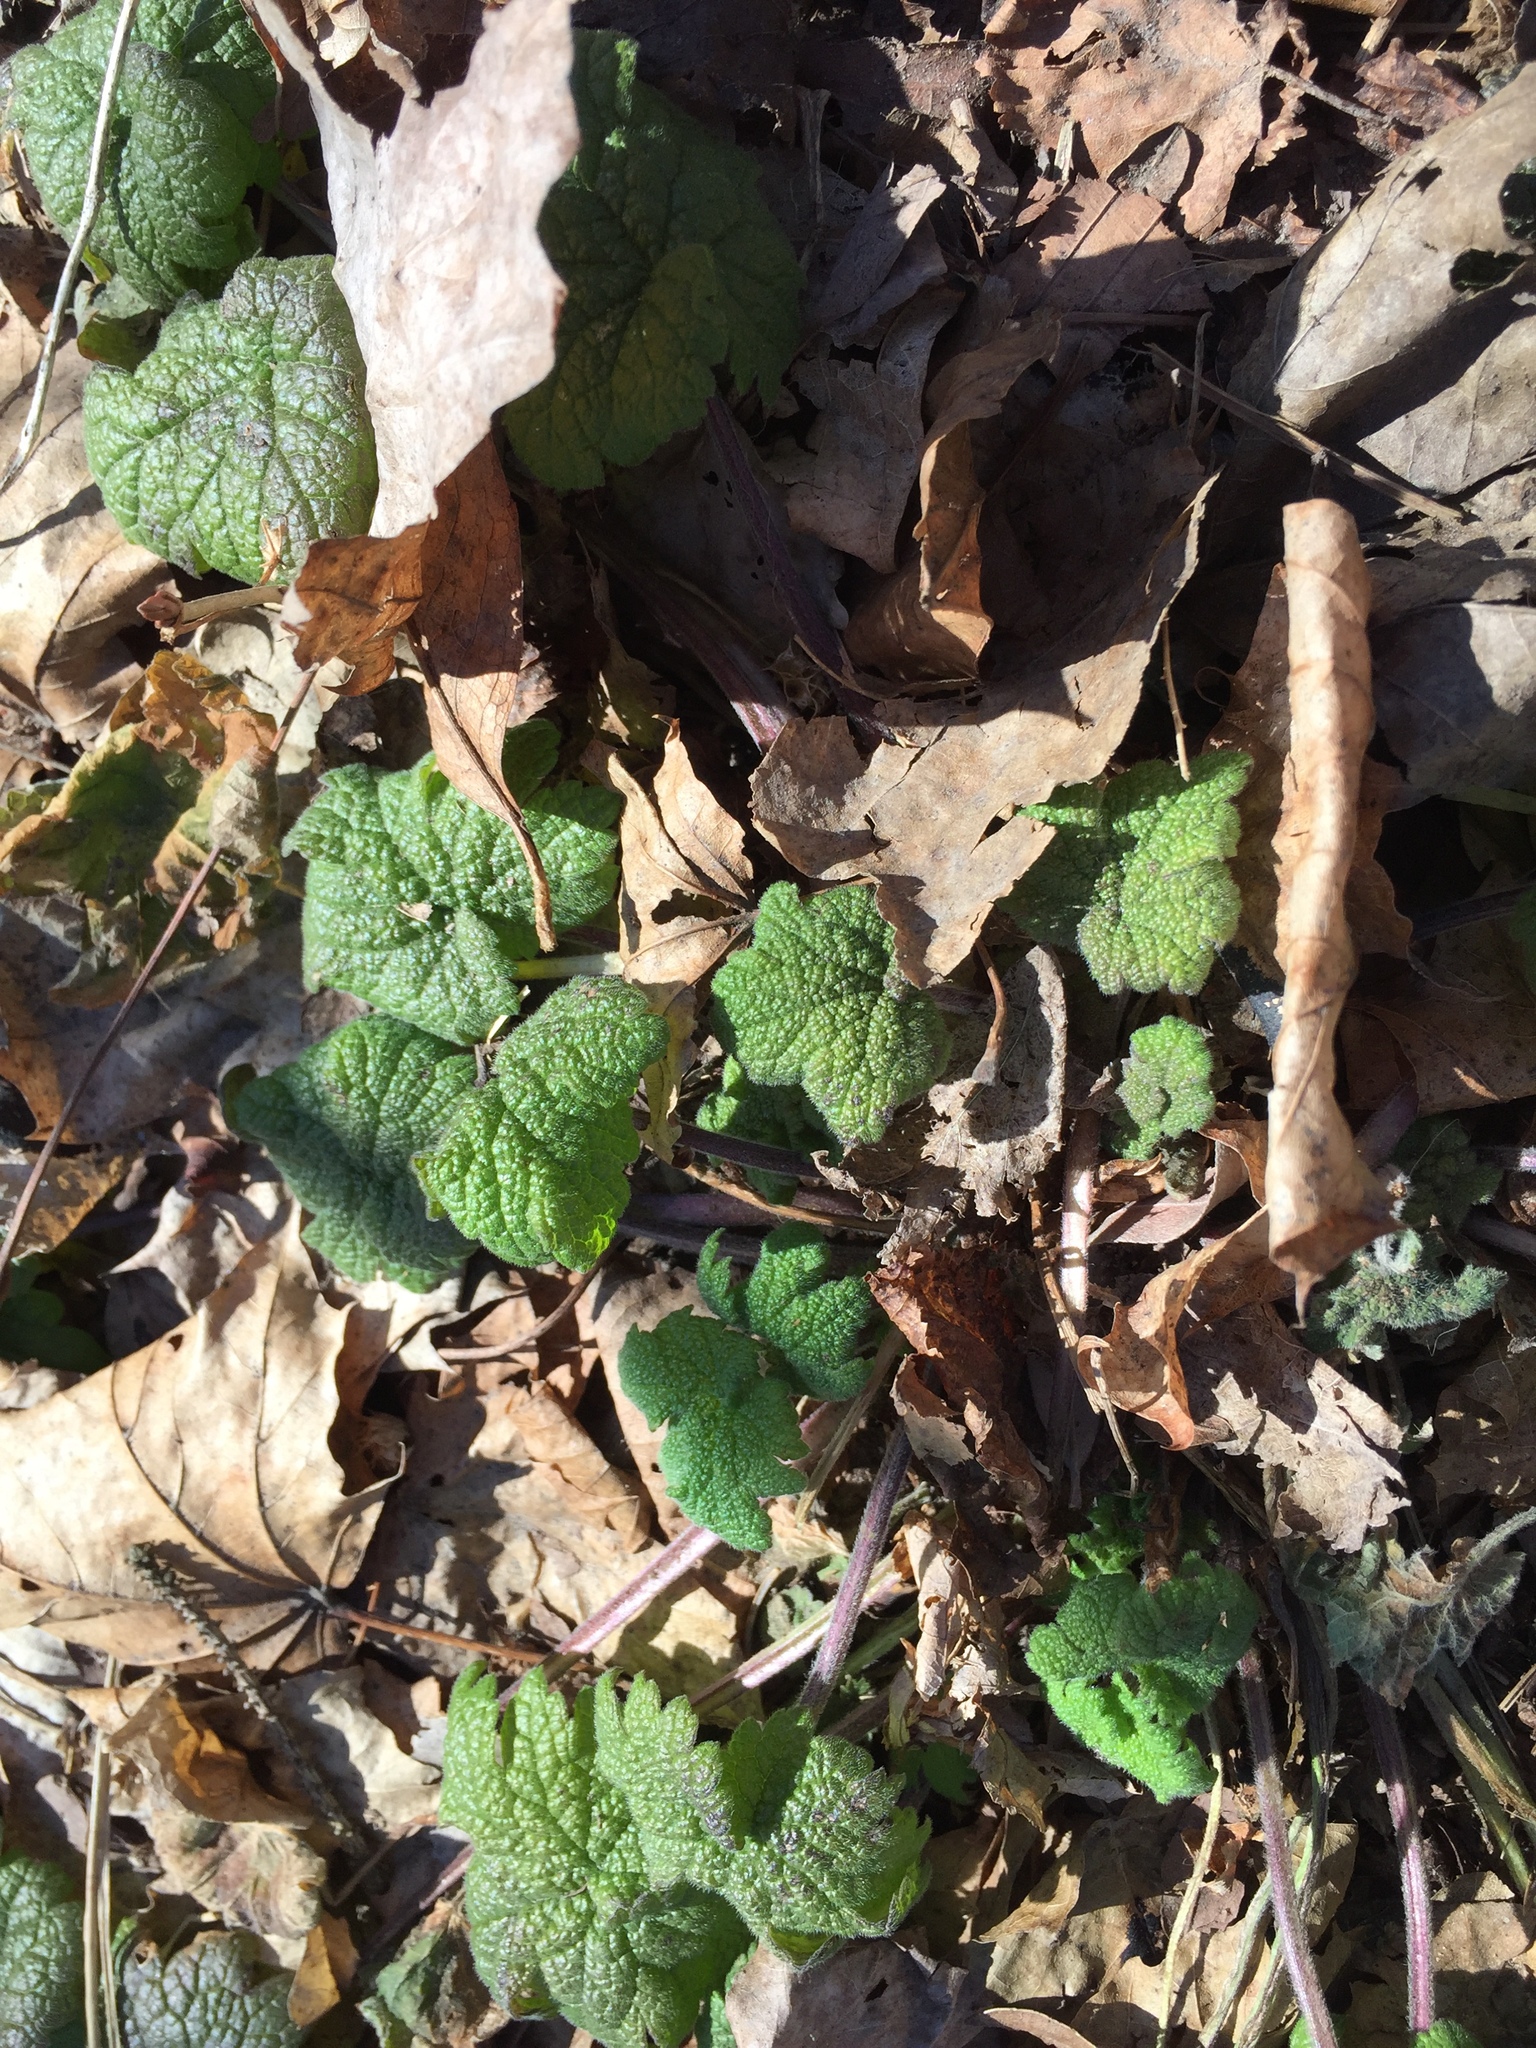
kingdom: Plantae
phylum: Tracheophyta
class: Magnoliopsida
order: Lamiales
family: Lamiaceae
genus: Leonurus
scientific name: Leonurus cardiaca
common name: Motherwort
